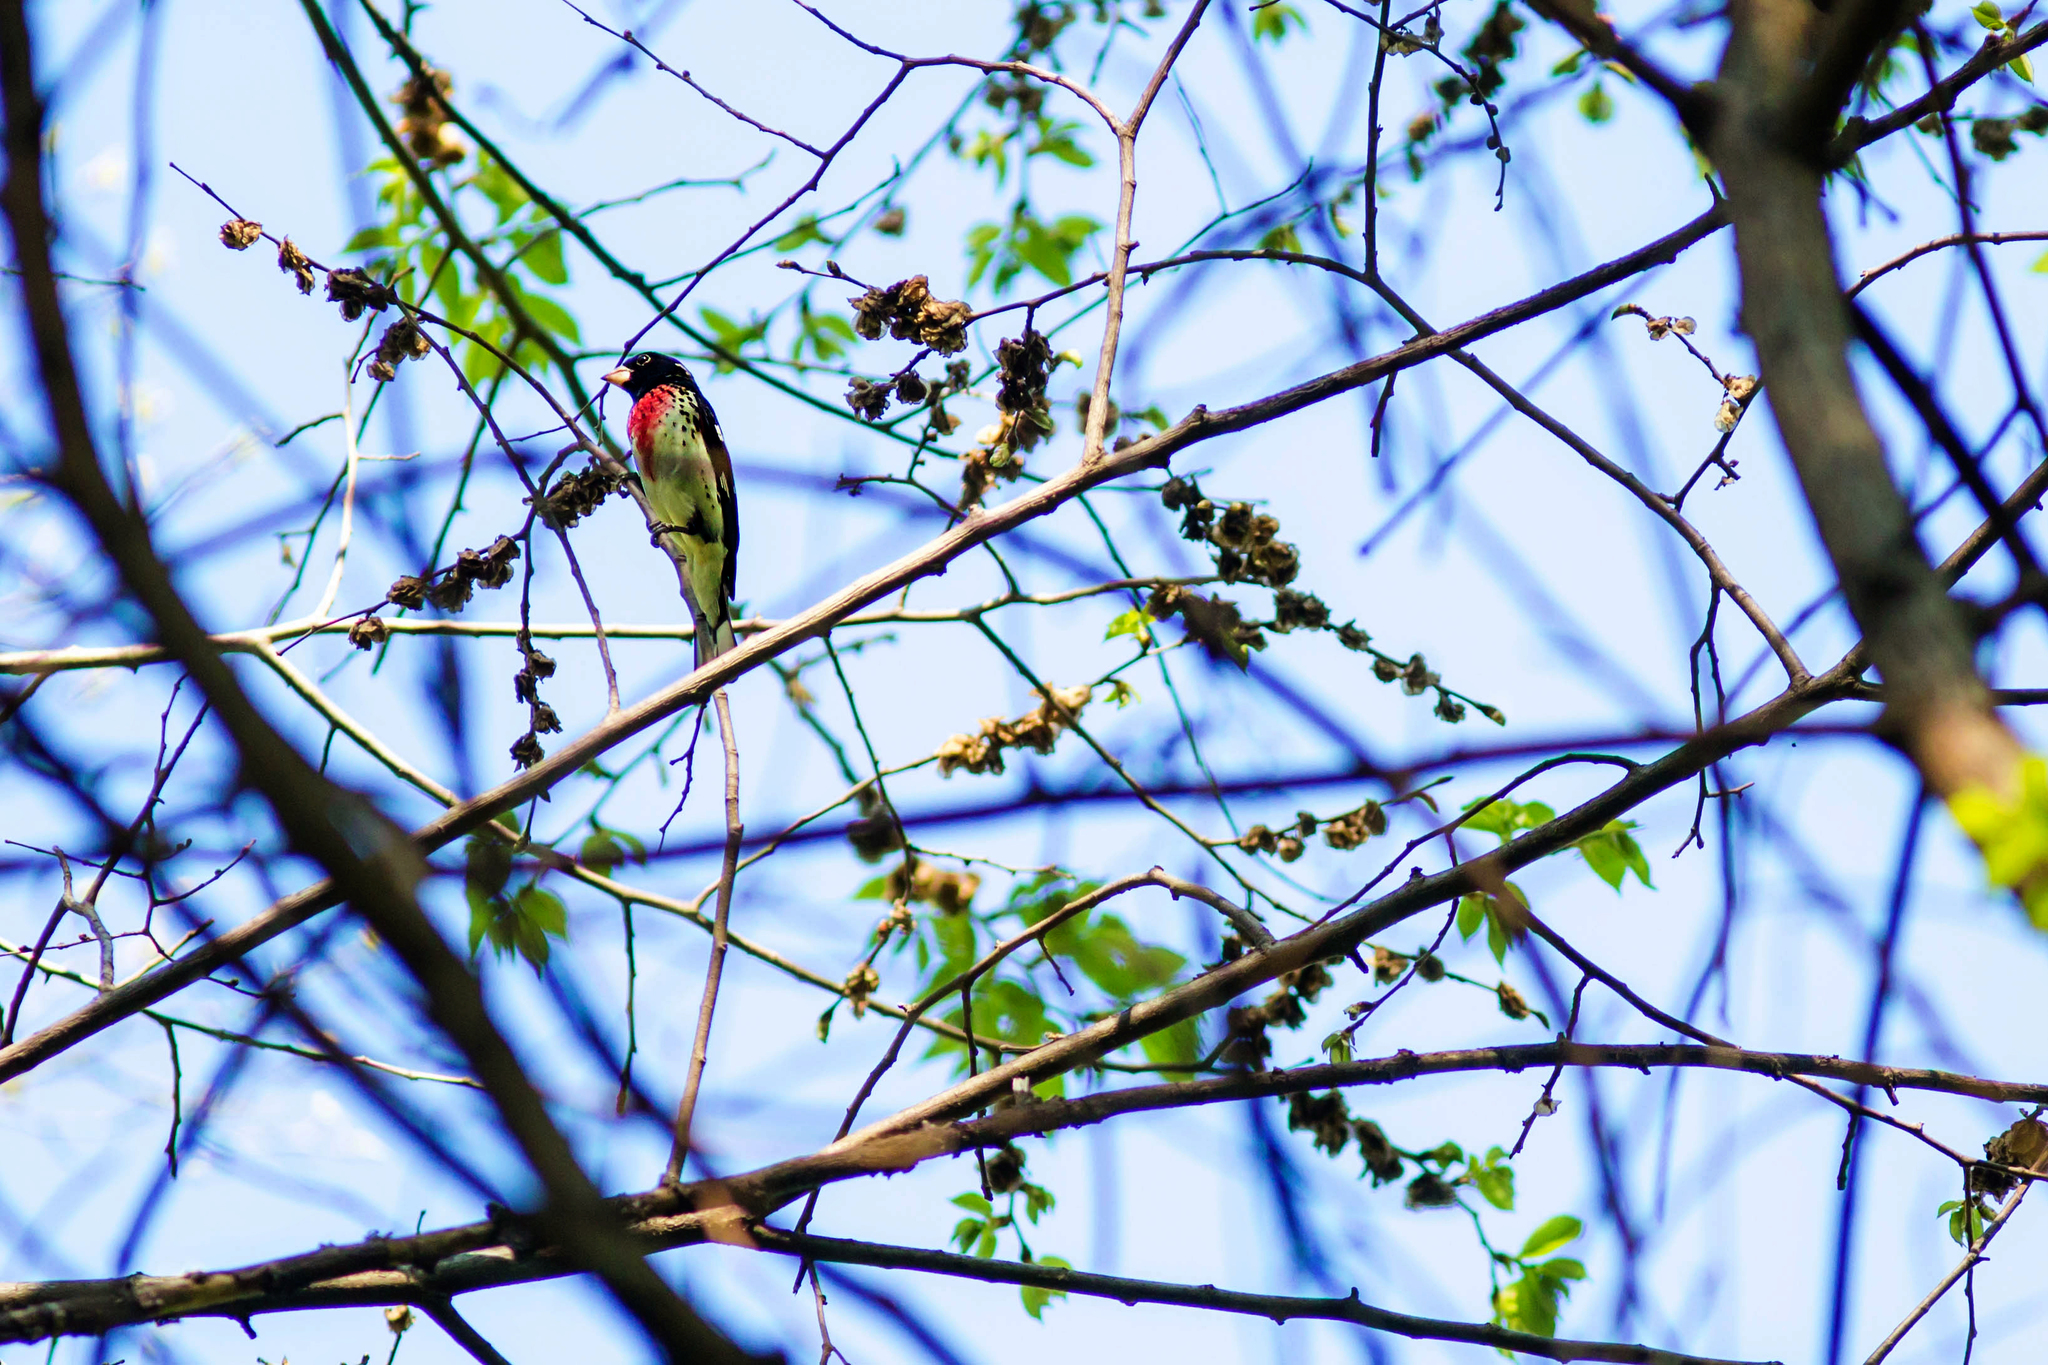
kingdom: Animalia
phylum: Chordata
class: Aves
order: Passeriformes
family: Cardinalidae
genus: Pheucticus
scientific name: Pheucticus ludovicianus
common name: Rose-breasted grosbeak
